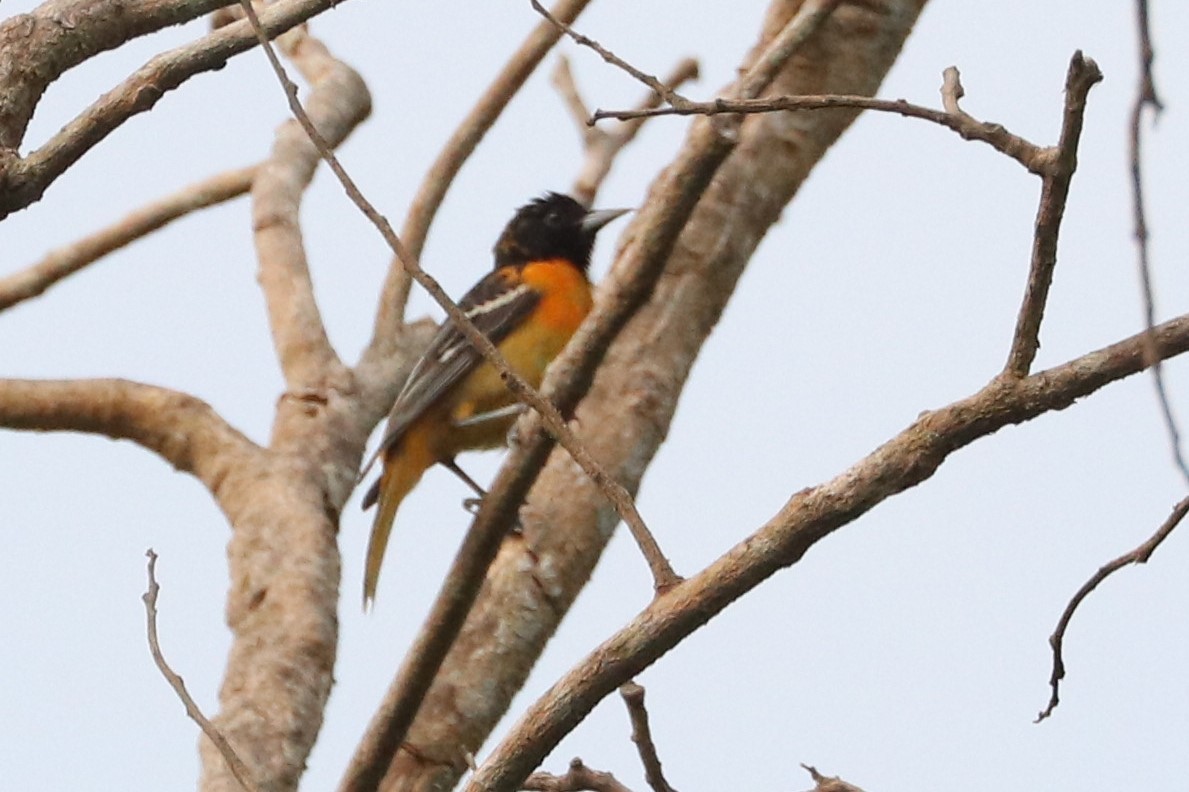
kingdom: Animalia
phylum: Chordata
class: Aves
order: Passeriformes
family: Icteridae
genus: Icterus
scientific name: Icterus galbula
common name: Baltimore oriole
